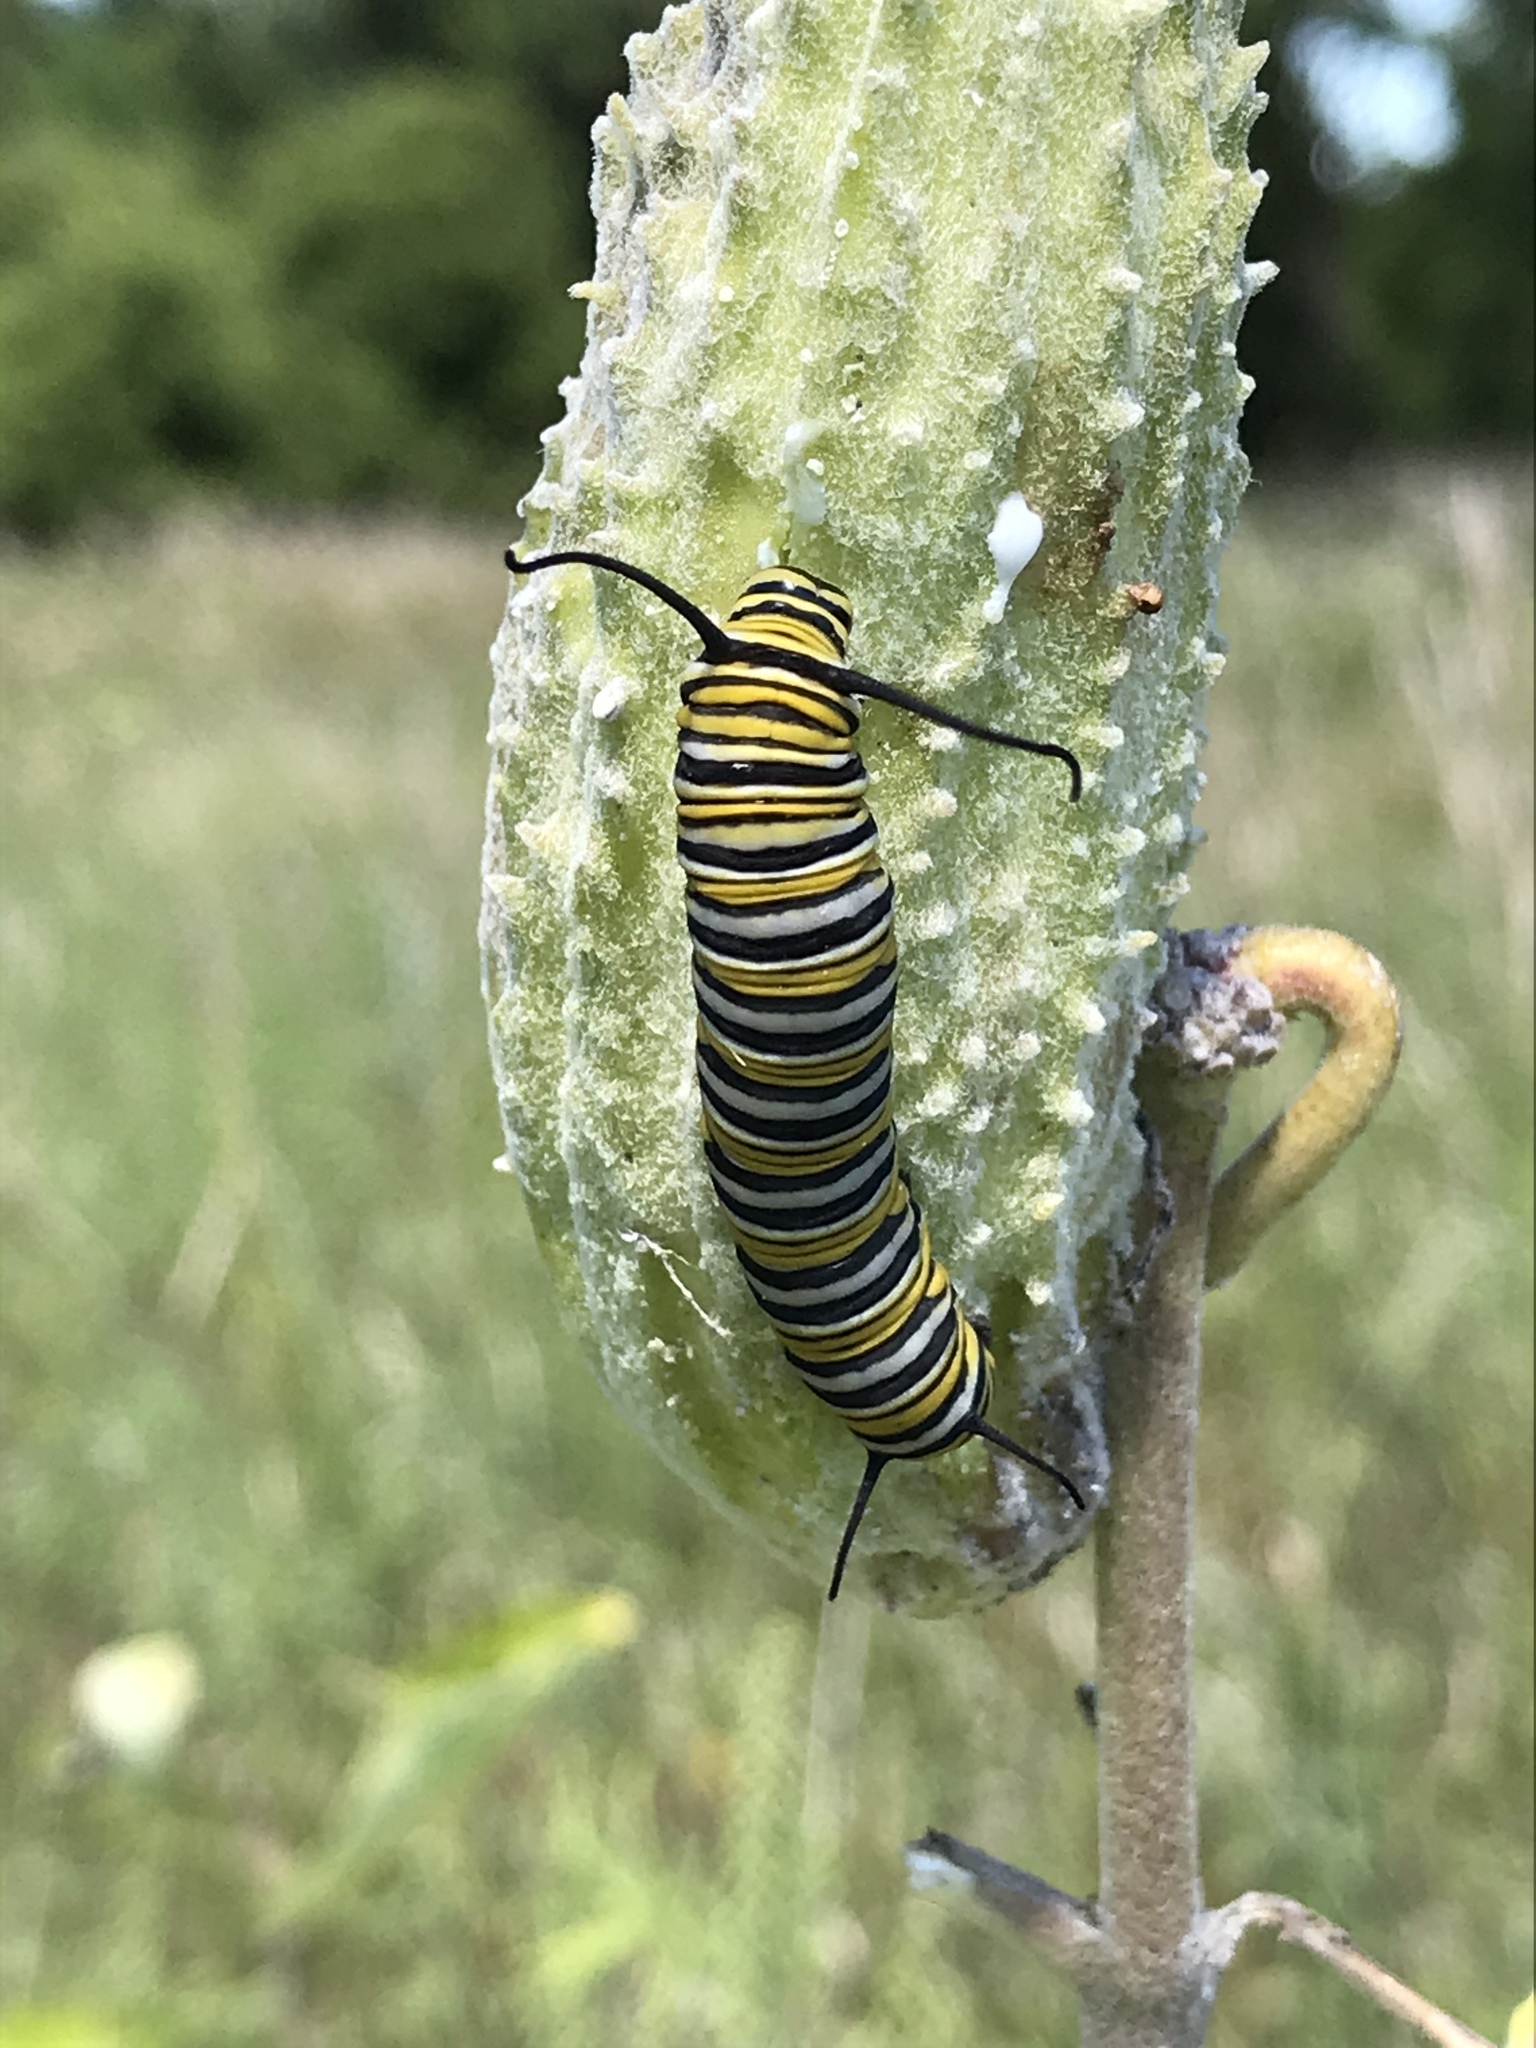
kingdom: Animalia
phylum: Arthropoda
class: Insecta
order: Lepidoptera
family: Nymphalidae
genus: Danaus
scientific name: Danaus plexippus
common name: Monarch
